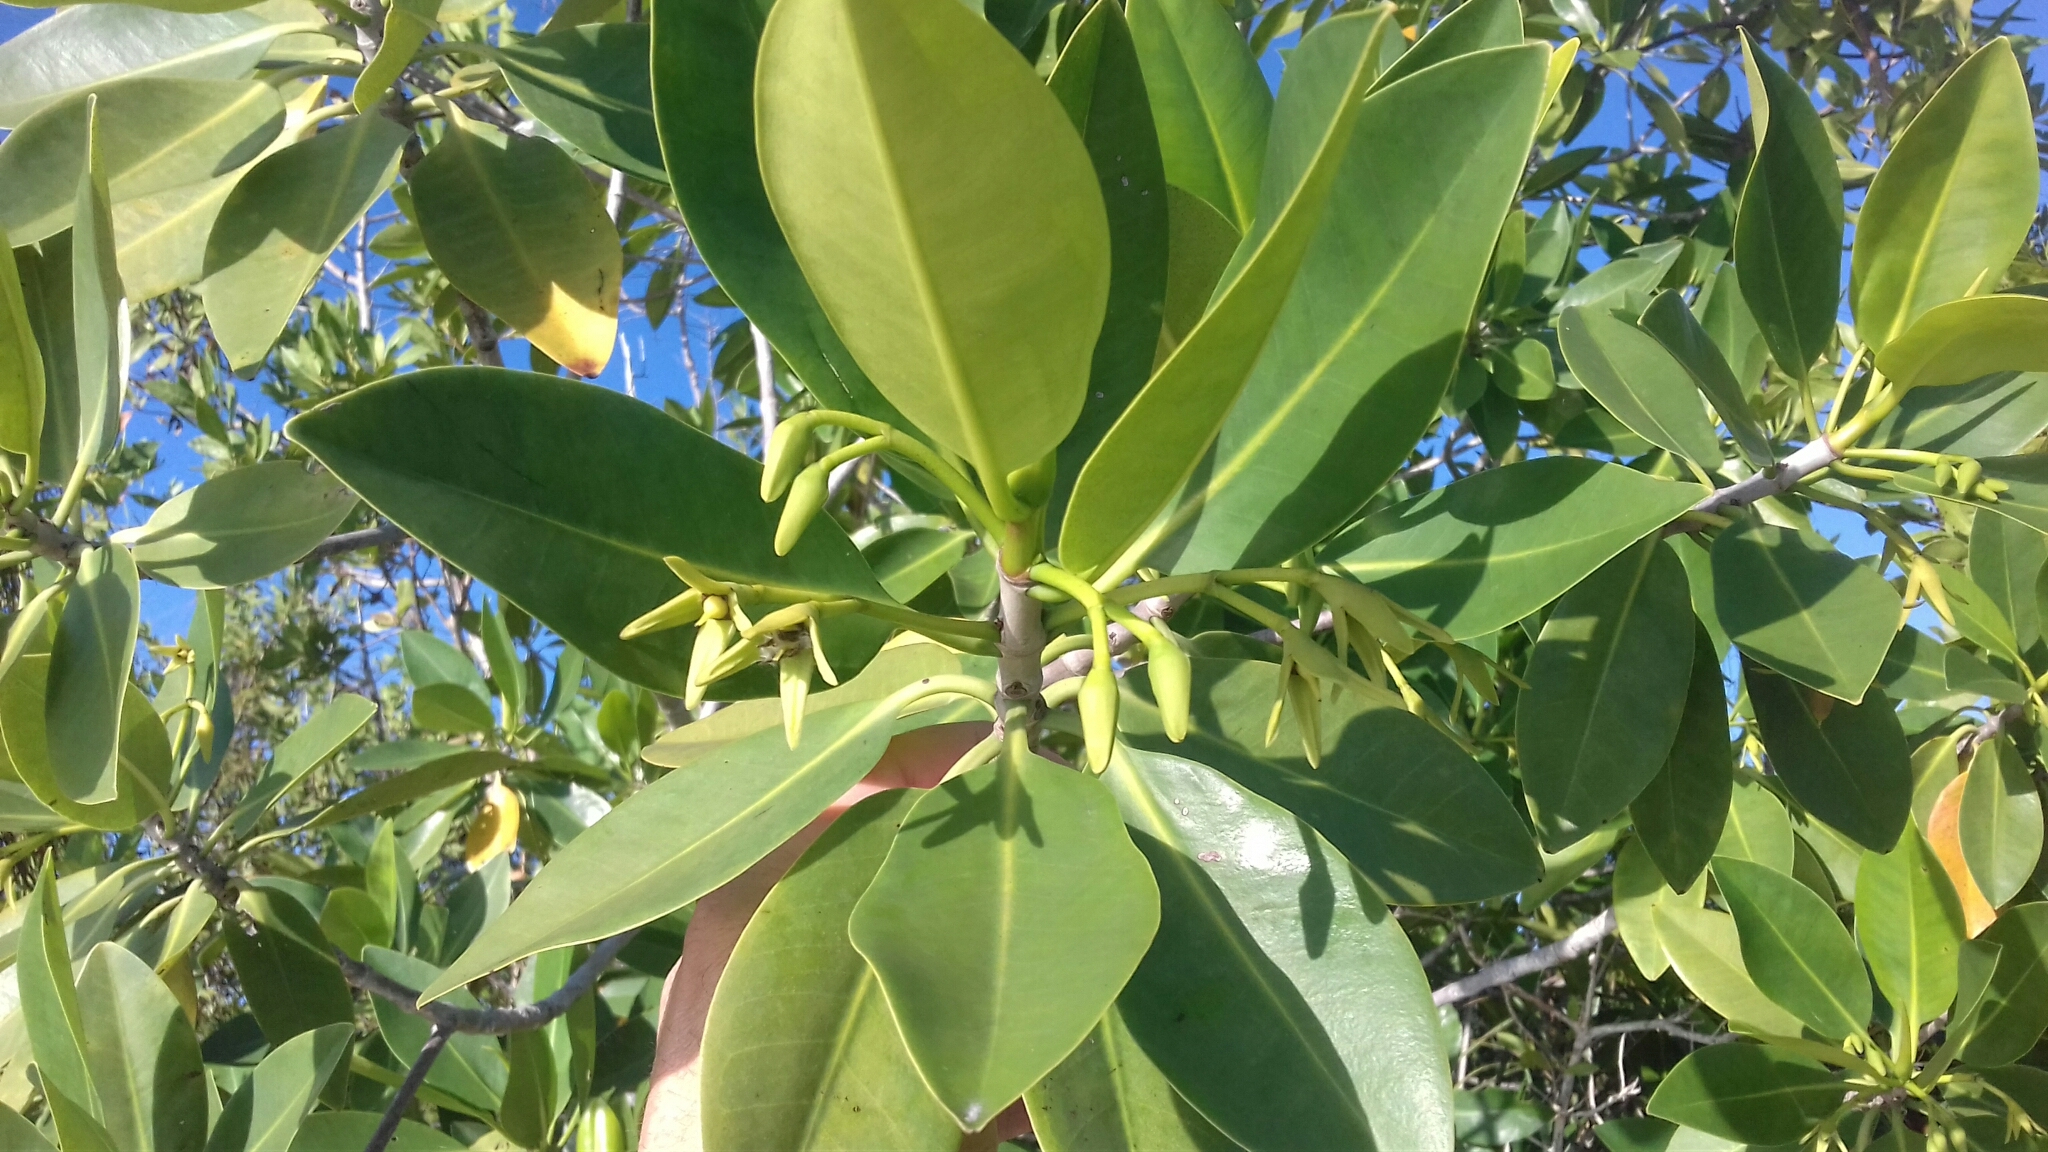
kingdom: Plantae
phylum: Tracheophyta
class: Magnoliopsida
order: Malpighiales
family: Rhizophoraceae
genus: Rhizophora
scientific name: Rhizophora mangle
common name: Red mangrove
